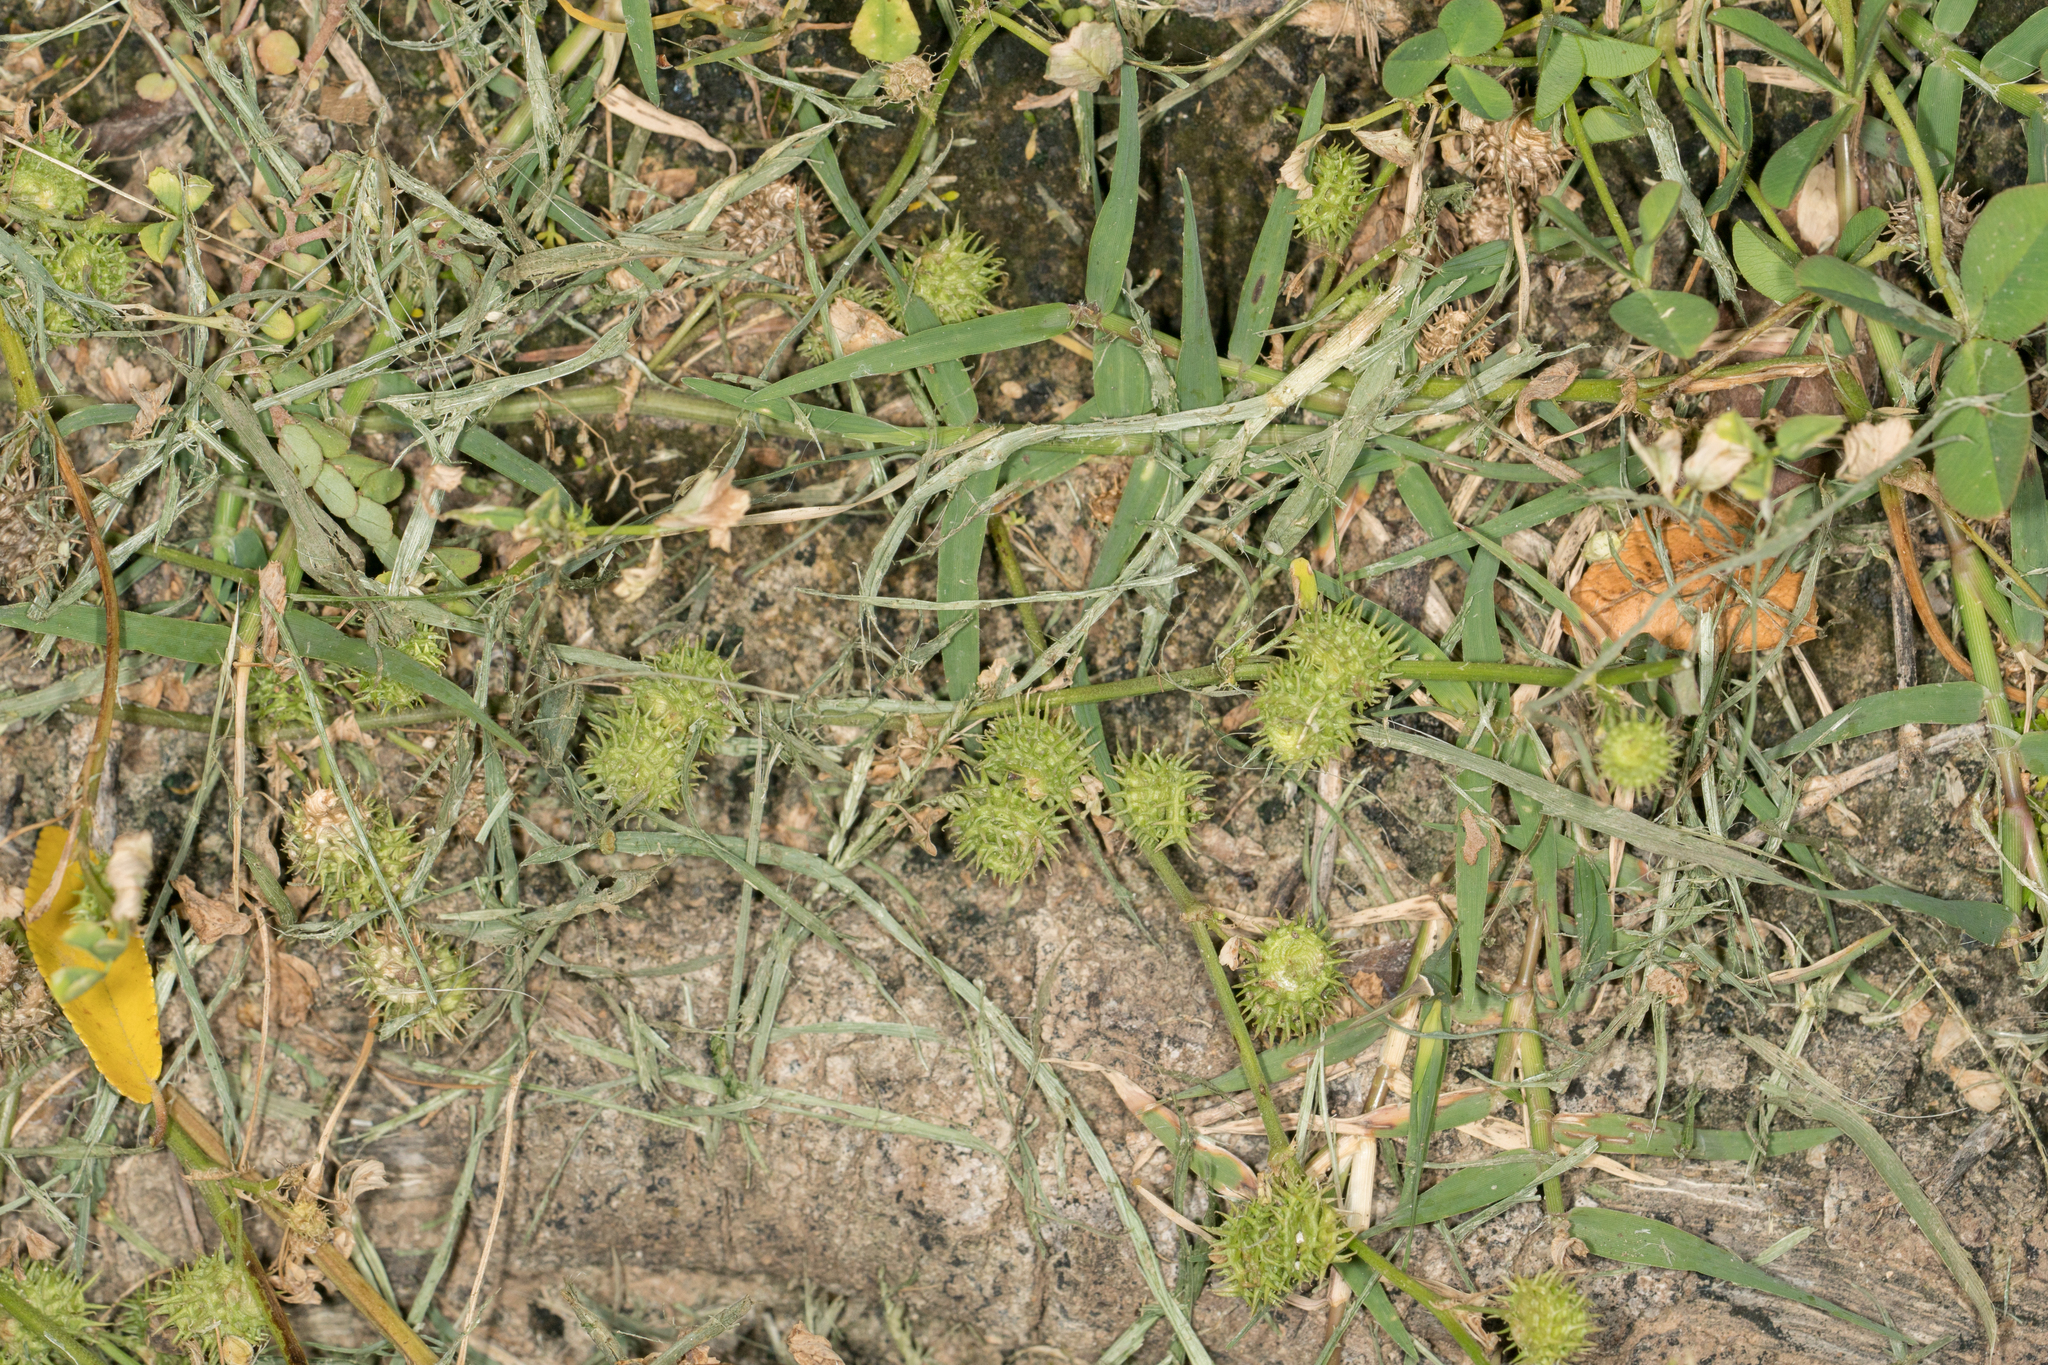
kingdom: Plantae
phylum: Tracheophyta
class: Magnoliopsida
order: Fabales
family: Fabaceae
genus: Medicago
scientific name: Medicago polymorpha
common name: Burclover
